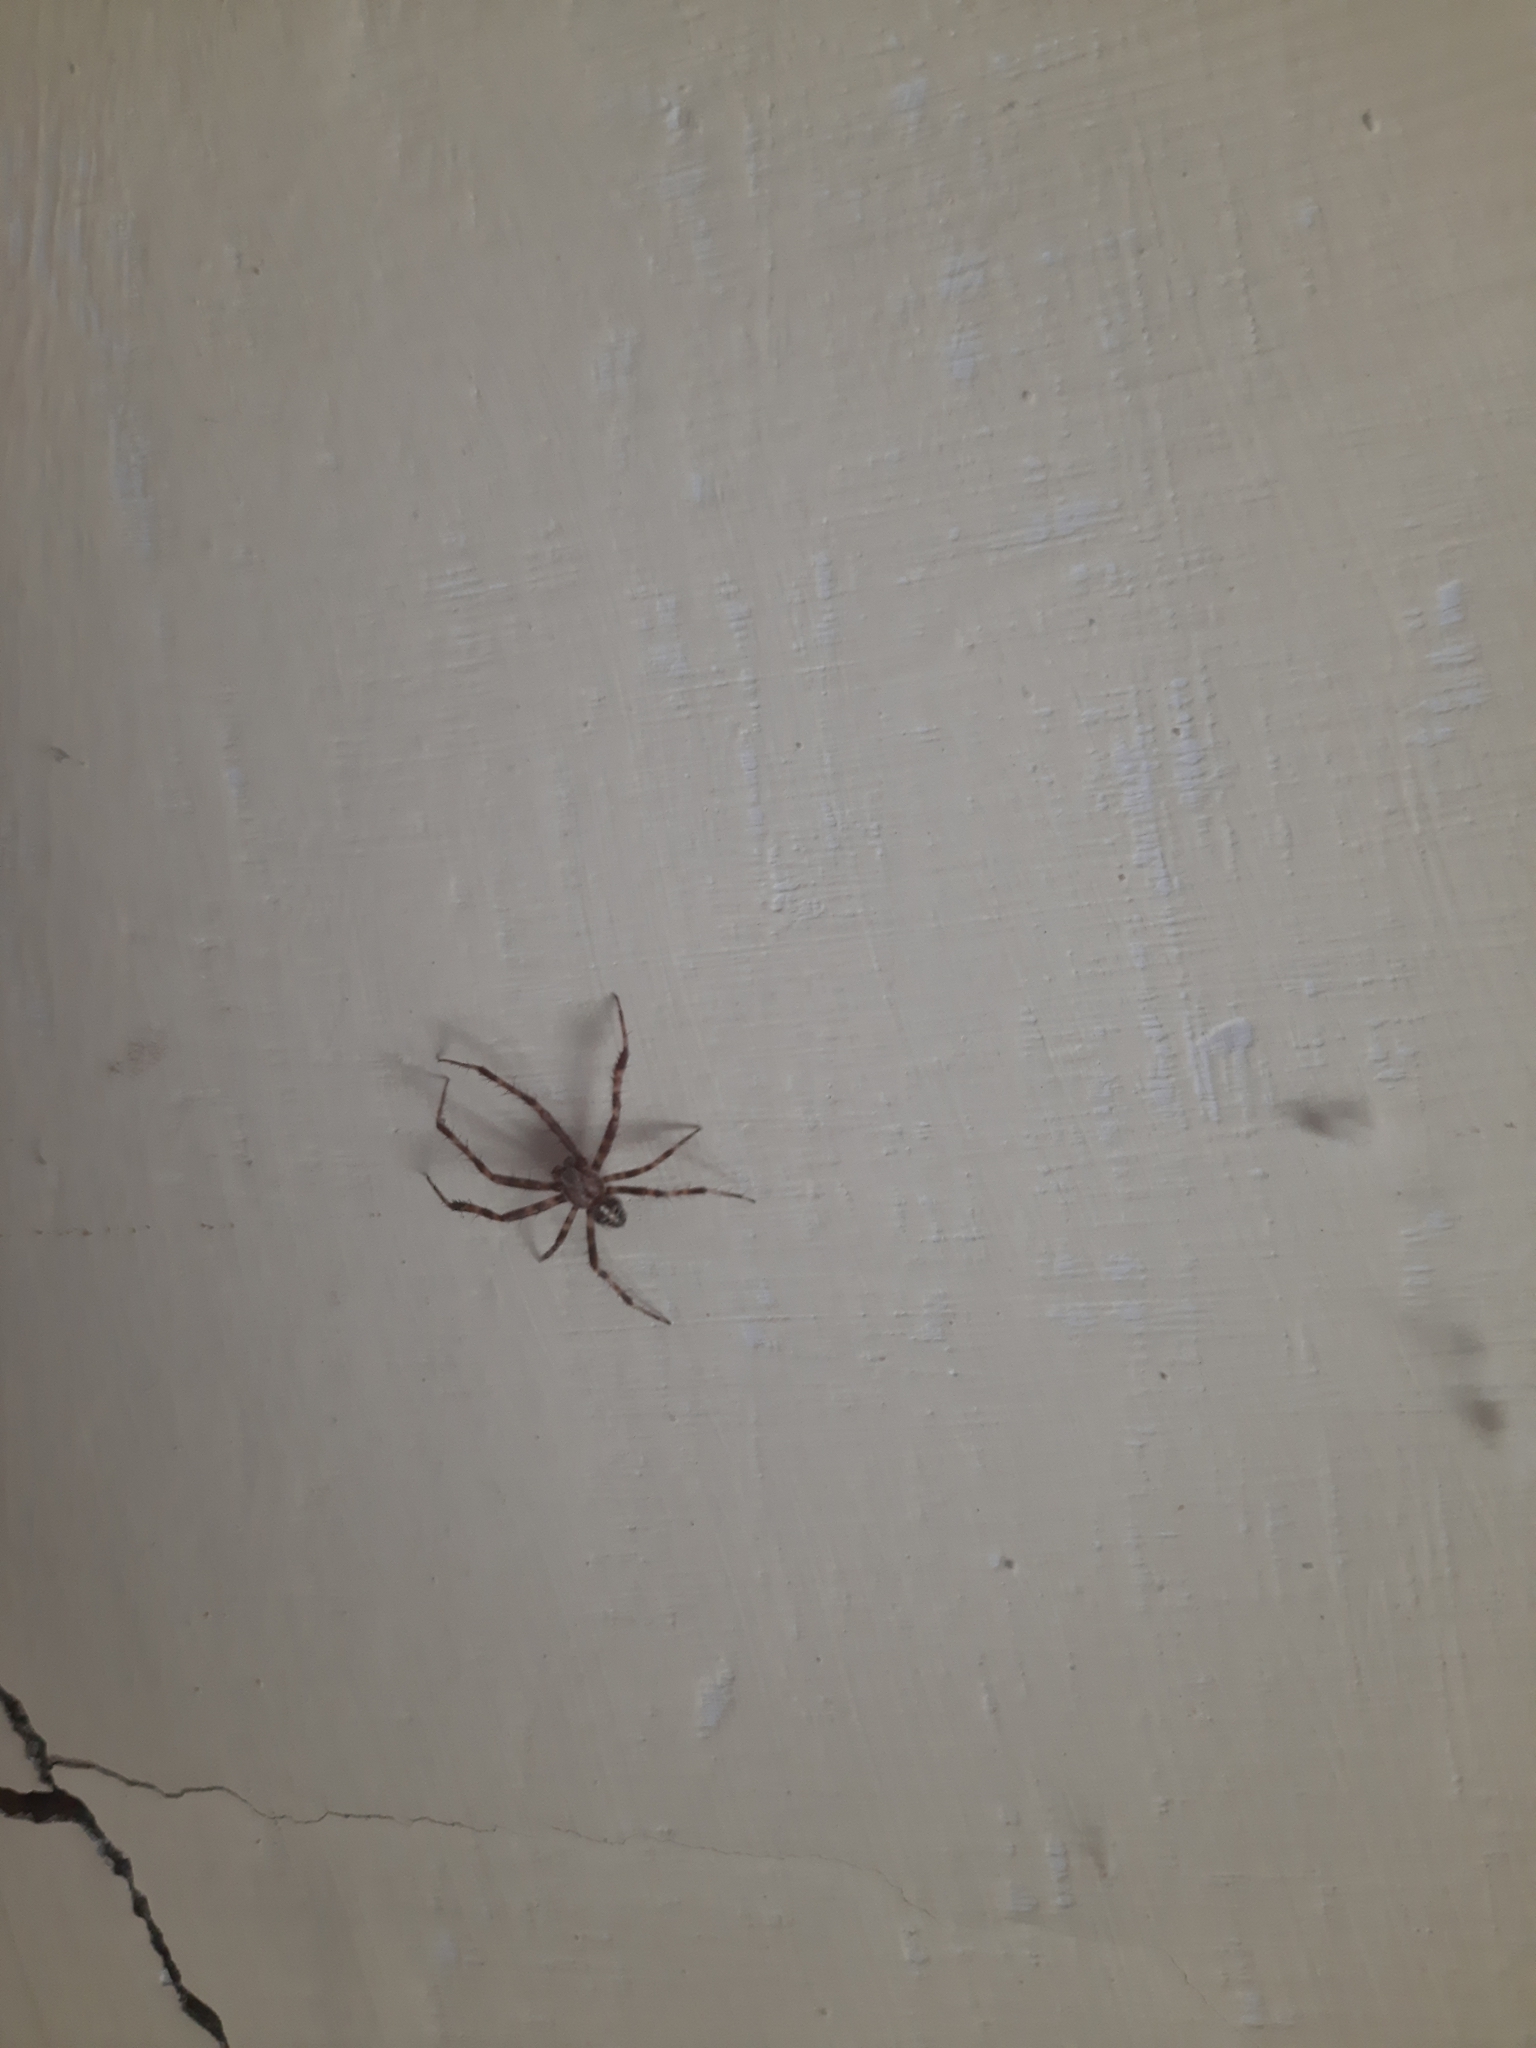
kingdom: Animalia
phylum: Arthropoda
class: Arachnida
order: Araneae
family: Araneidae
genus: Araneus
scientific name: Araneus diadematus
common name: Cross orbweaver
